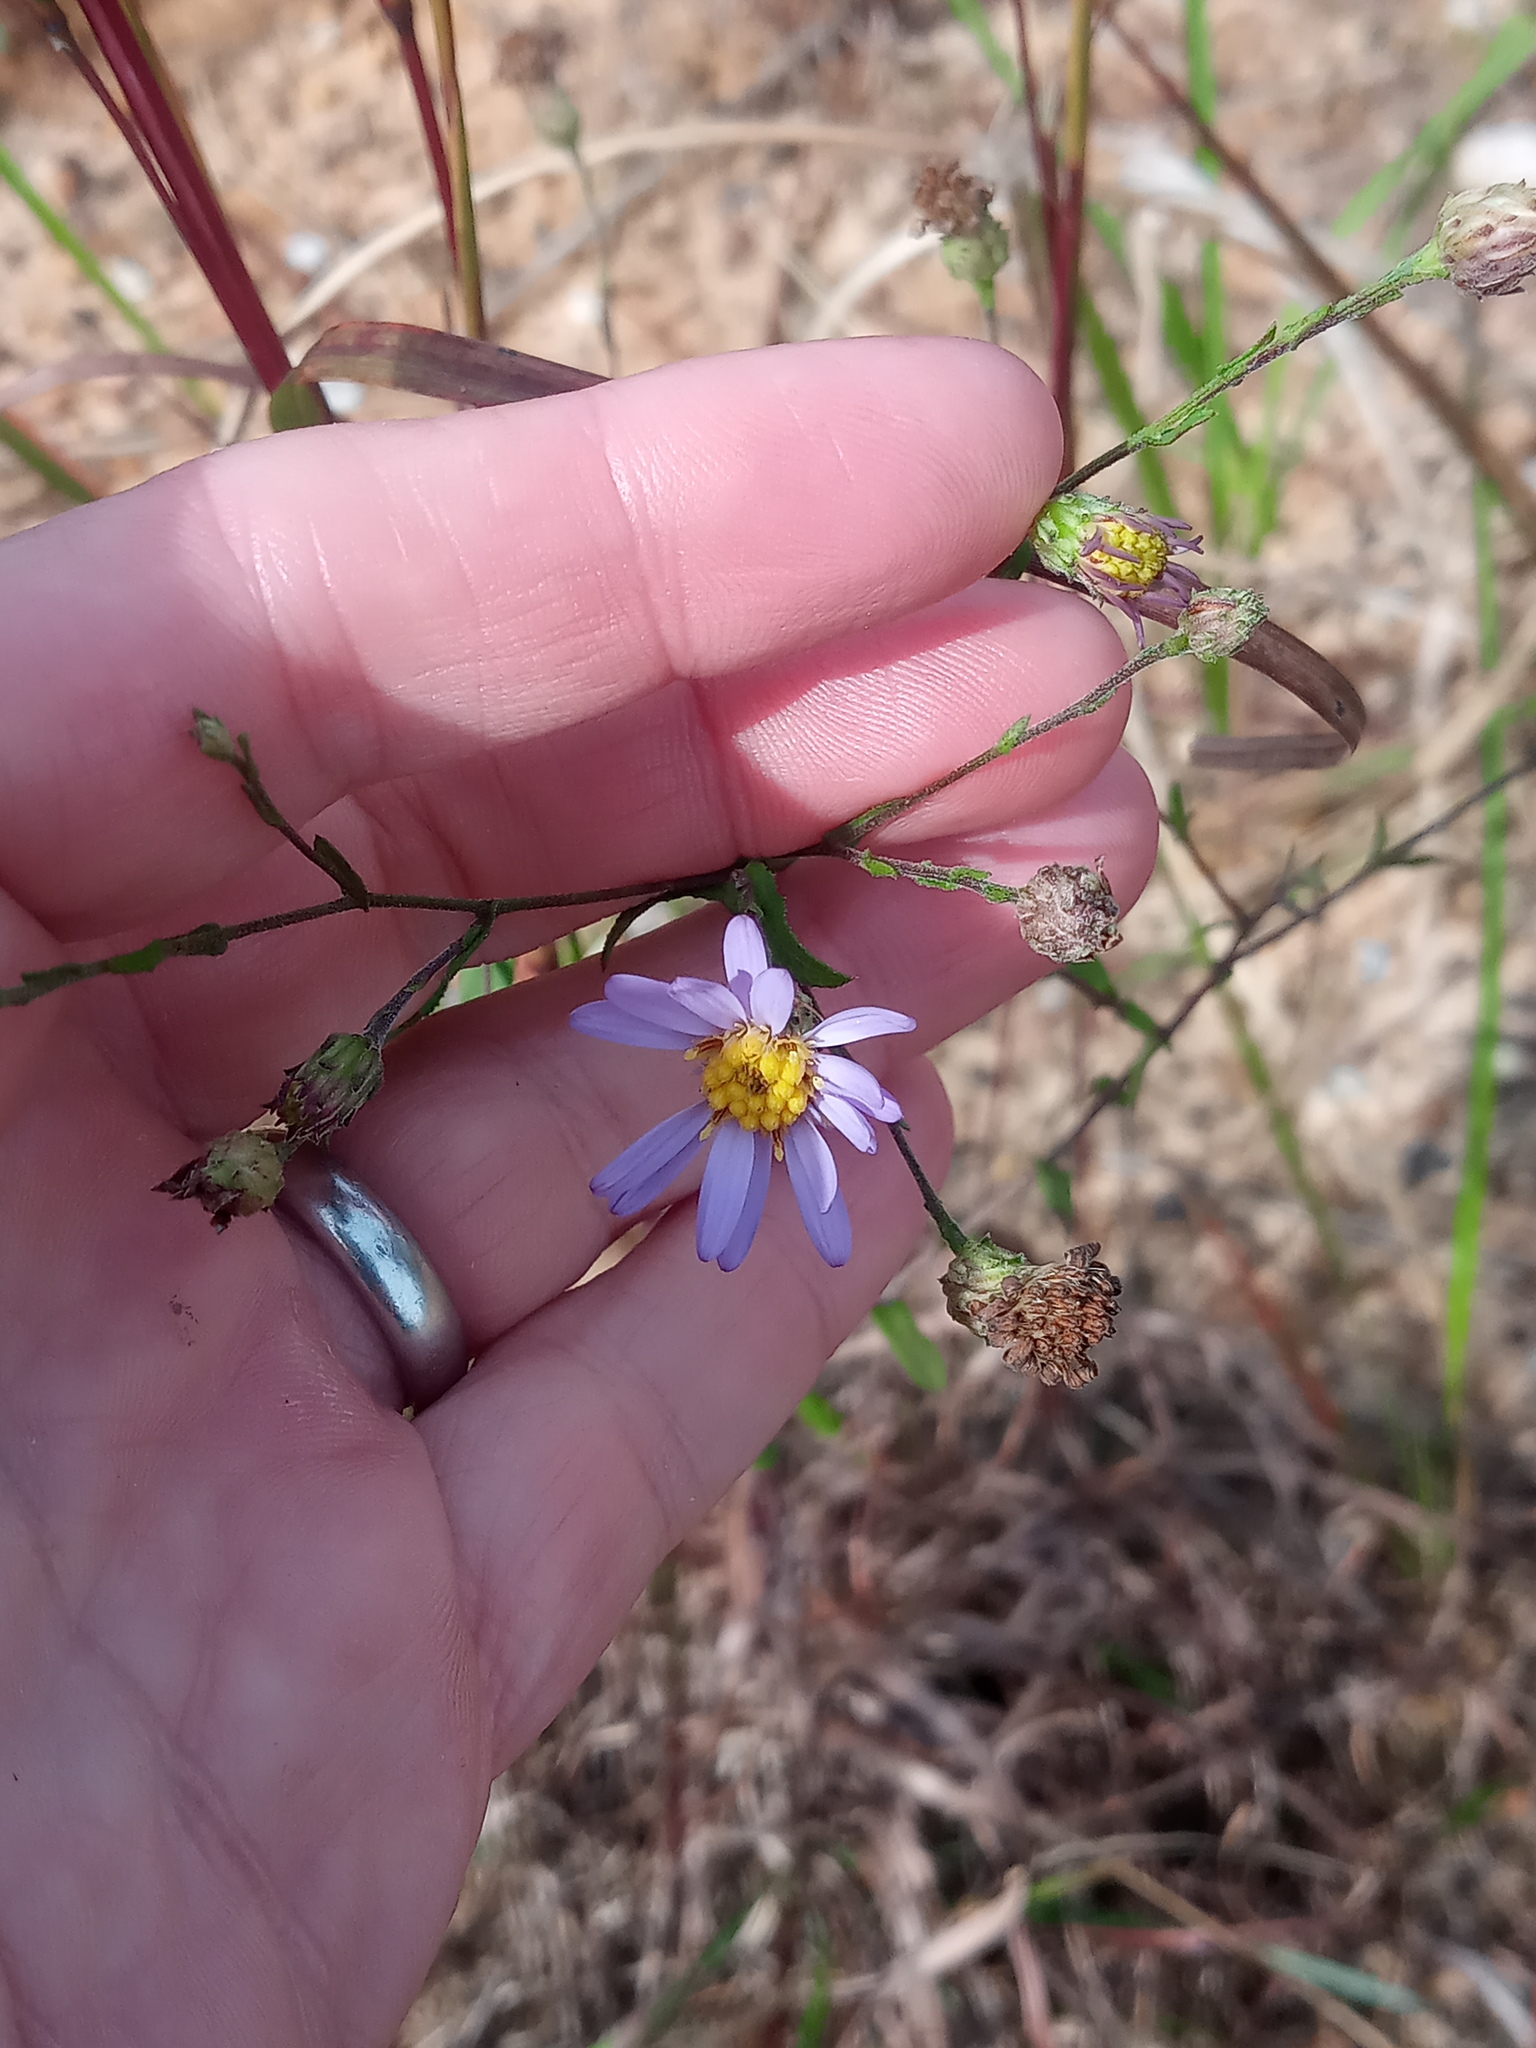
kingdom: Plantae
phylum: Tracheophyta
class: Magnoliopsida
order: Asterales
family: Asteraceae
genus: Symphyotrichum
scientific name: Symphyotrichum patens
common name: Late purple aster
